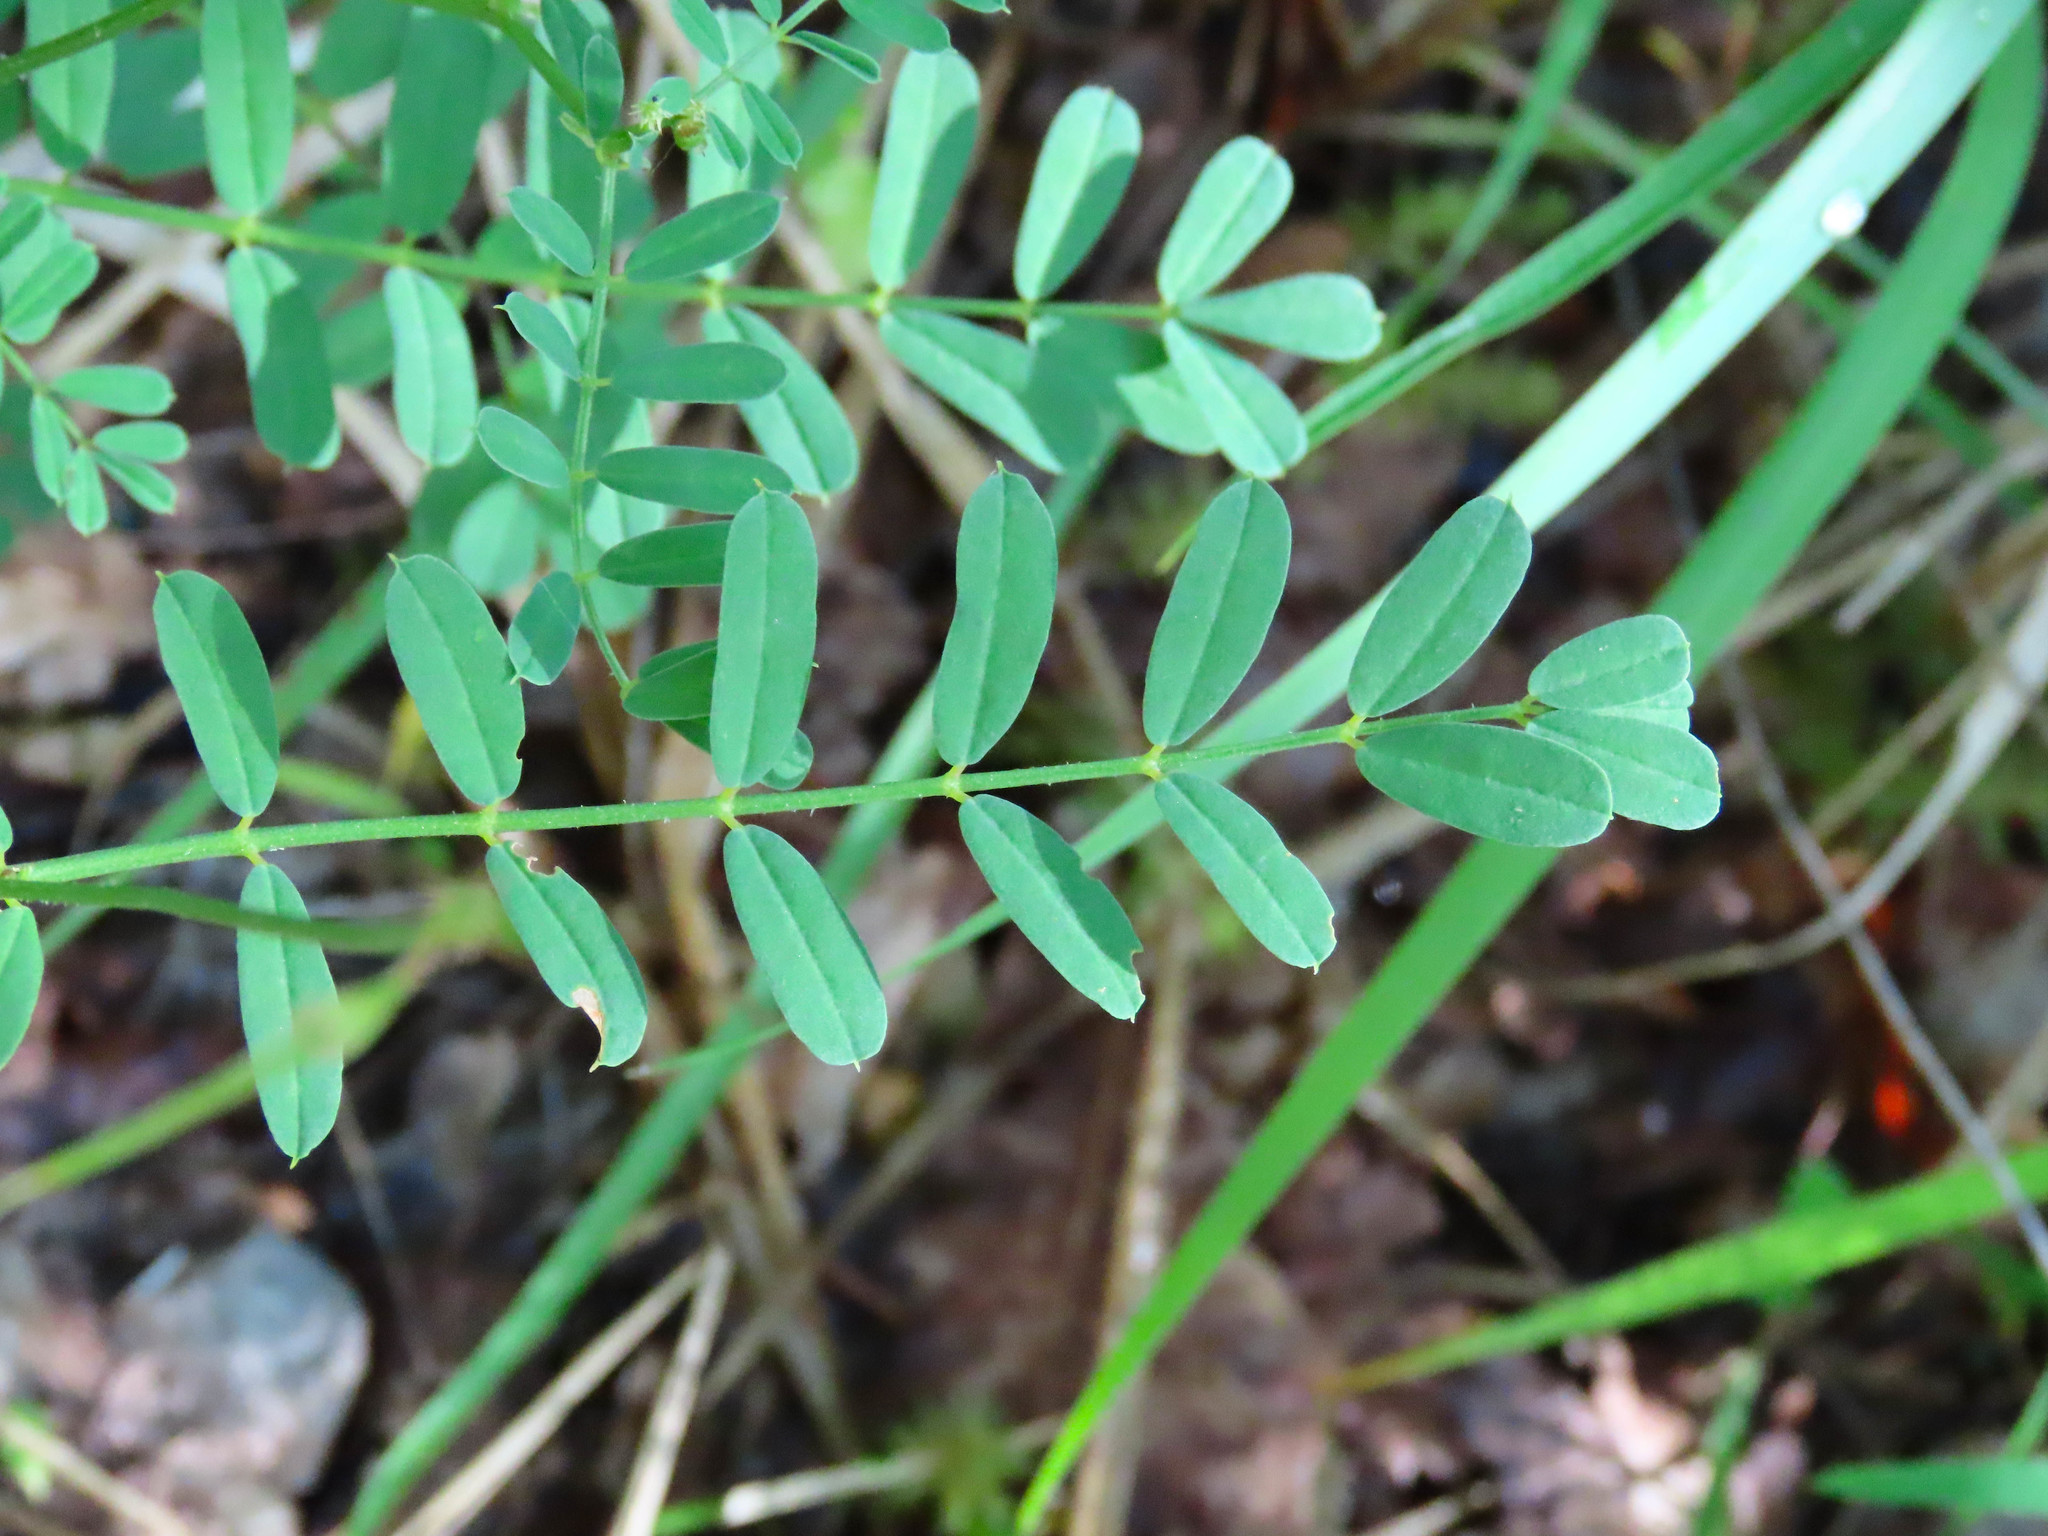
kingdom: Plantae
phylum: Tracheophyta
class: Magnoliopsida
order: Fabales
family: Fabaceae
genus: Coronilla
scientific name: Coronilla varia
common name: Crownvetch
